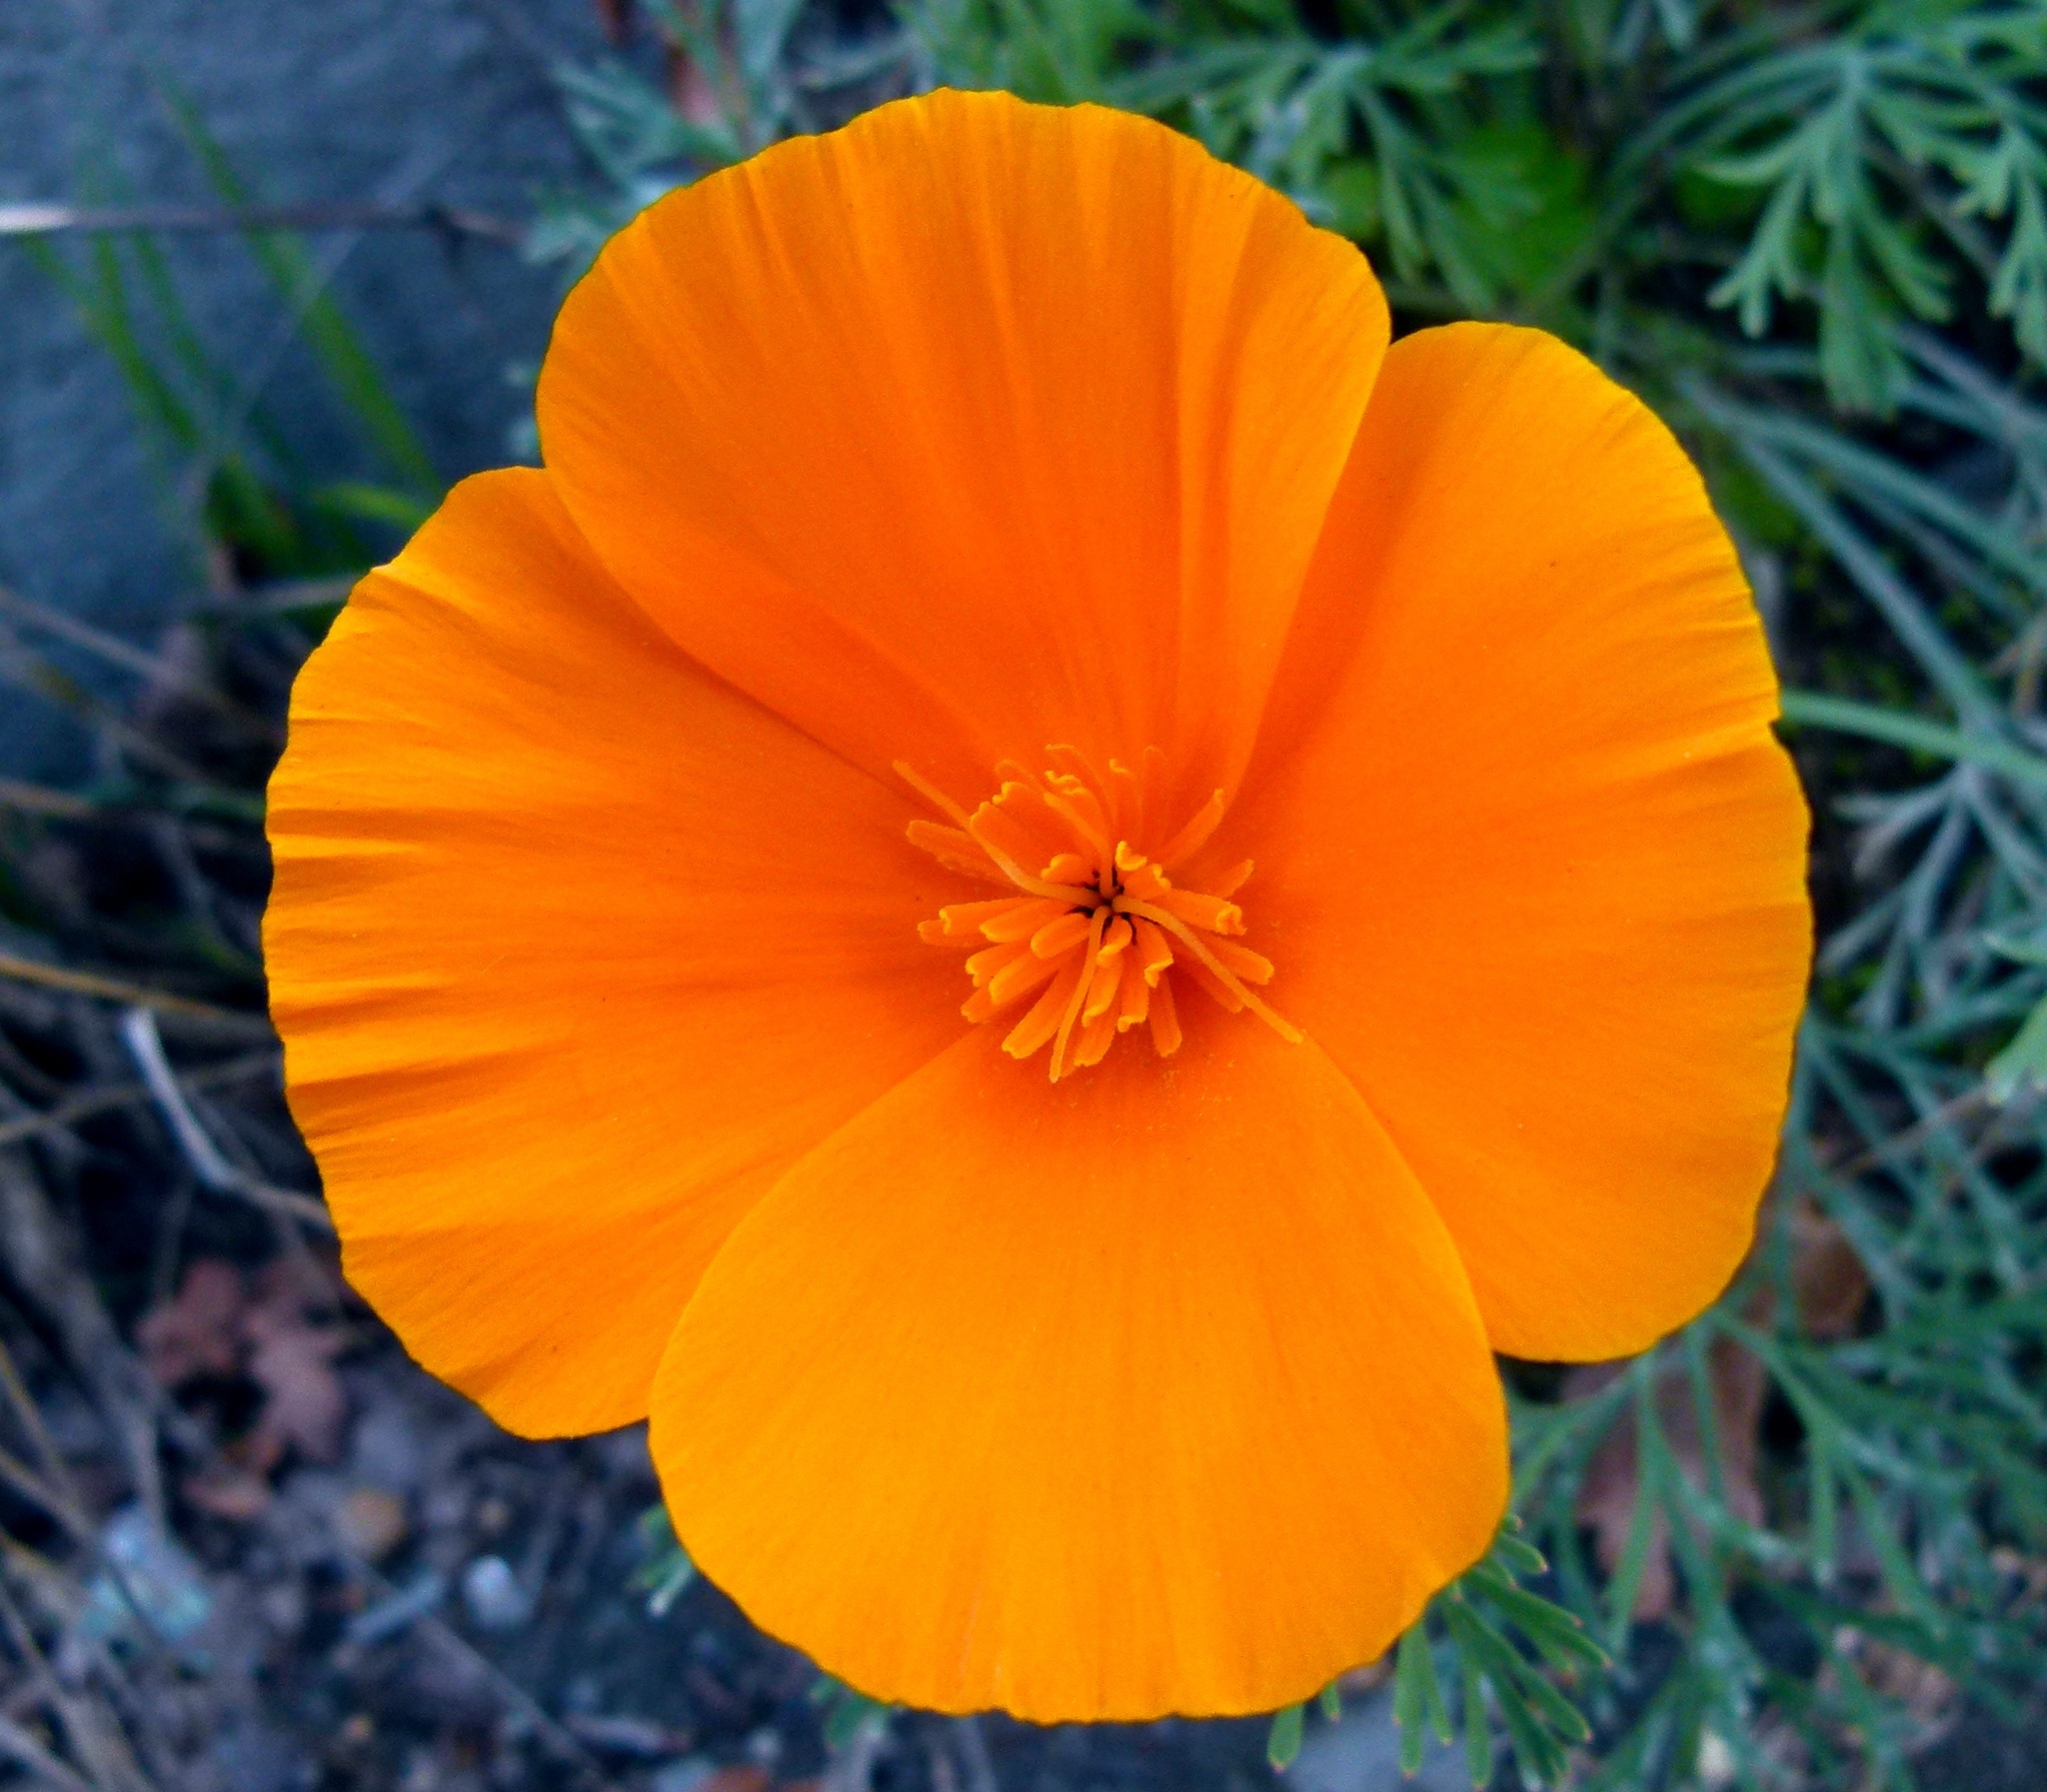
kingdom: Plantae
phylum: Tracheophyta
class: Magnoliopsida
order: Ranunculales
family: Papaveraceae
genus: Eschscholzia
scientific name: Eschscholzia californica
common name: California poppy
